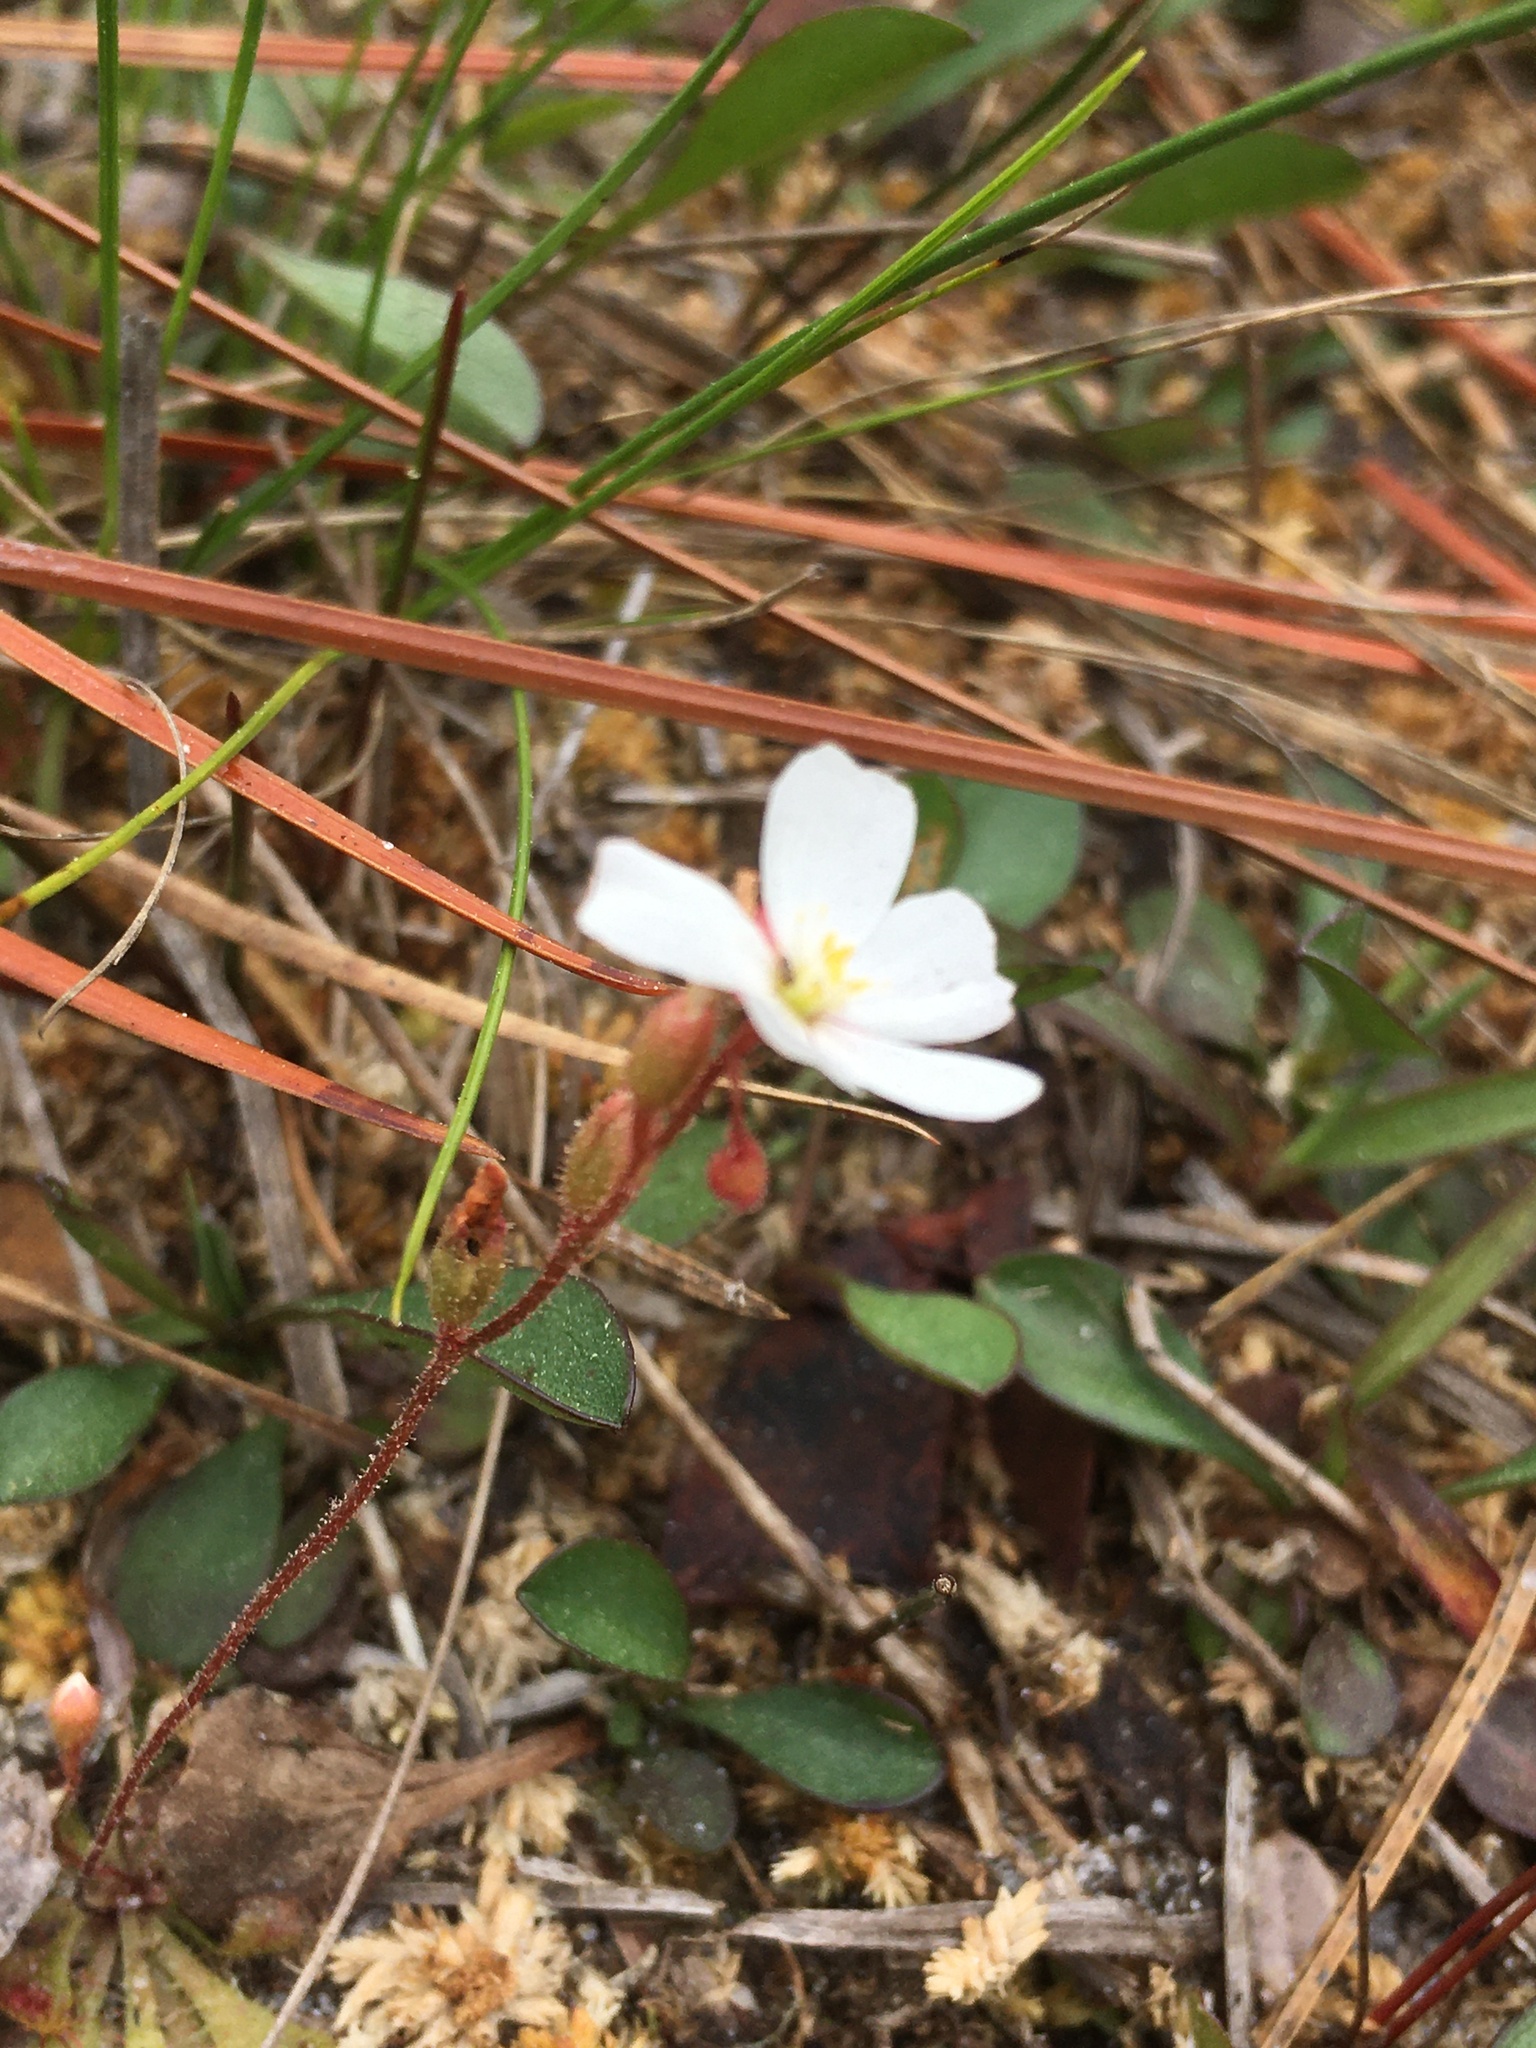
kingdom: Plantae
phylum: Tracheophyta
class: Magnoliopsida
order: Caryophyllales
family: Droseraceae
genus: Drosera
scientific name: Drosera brevifolia
